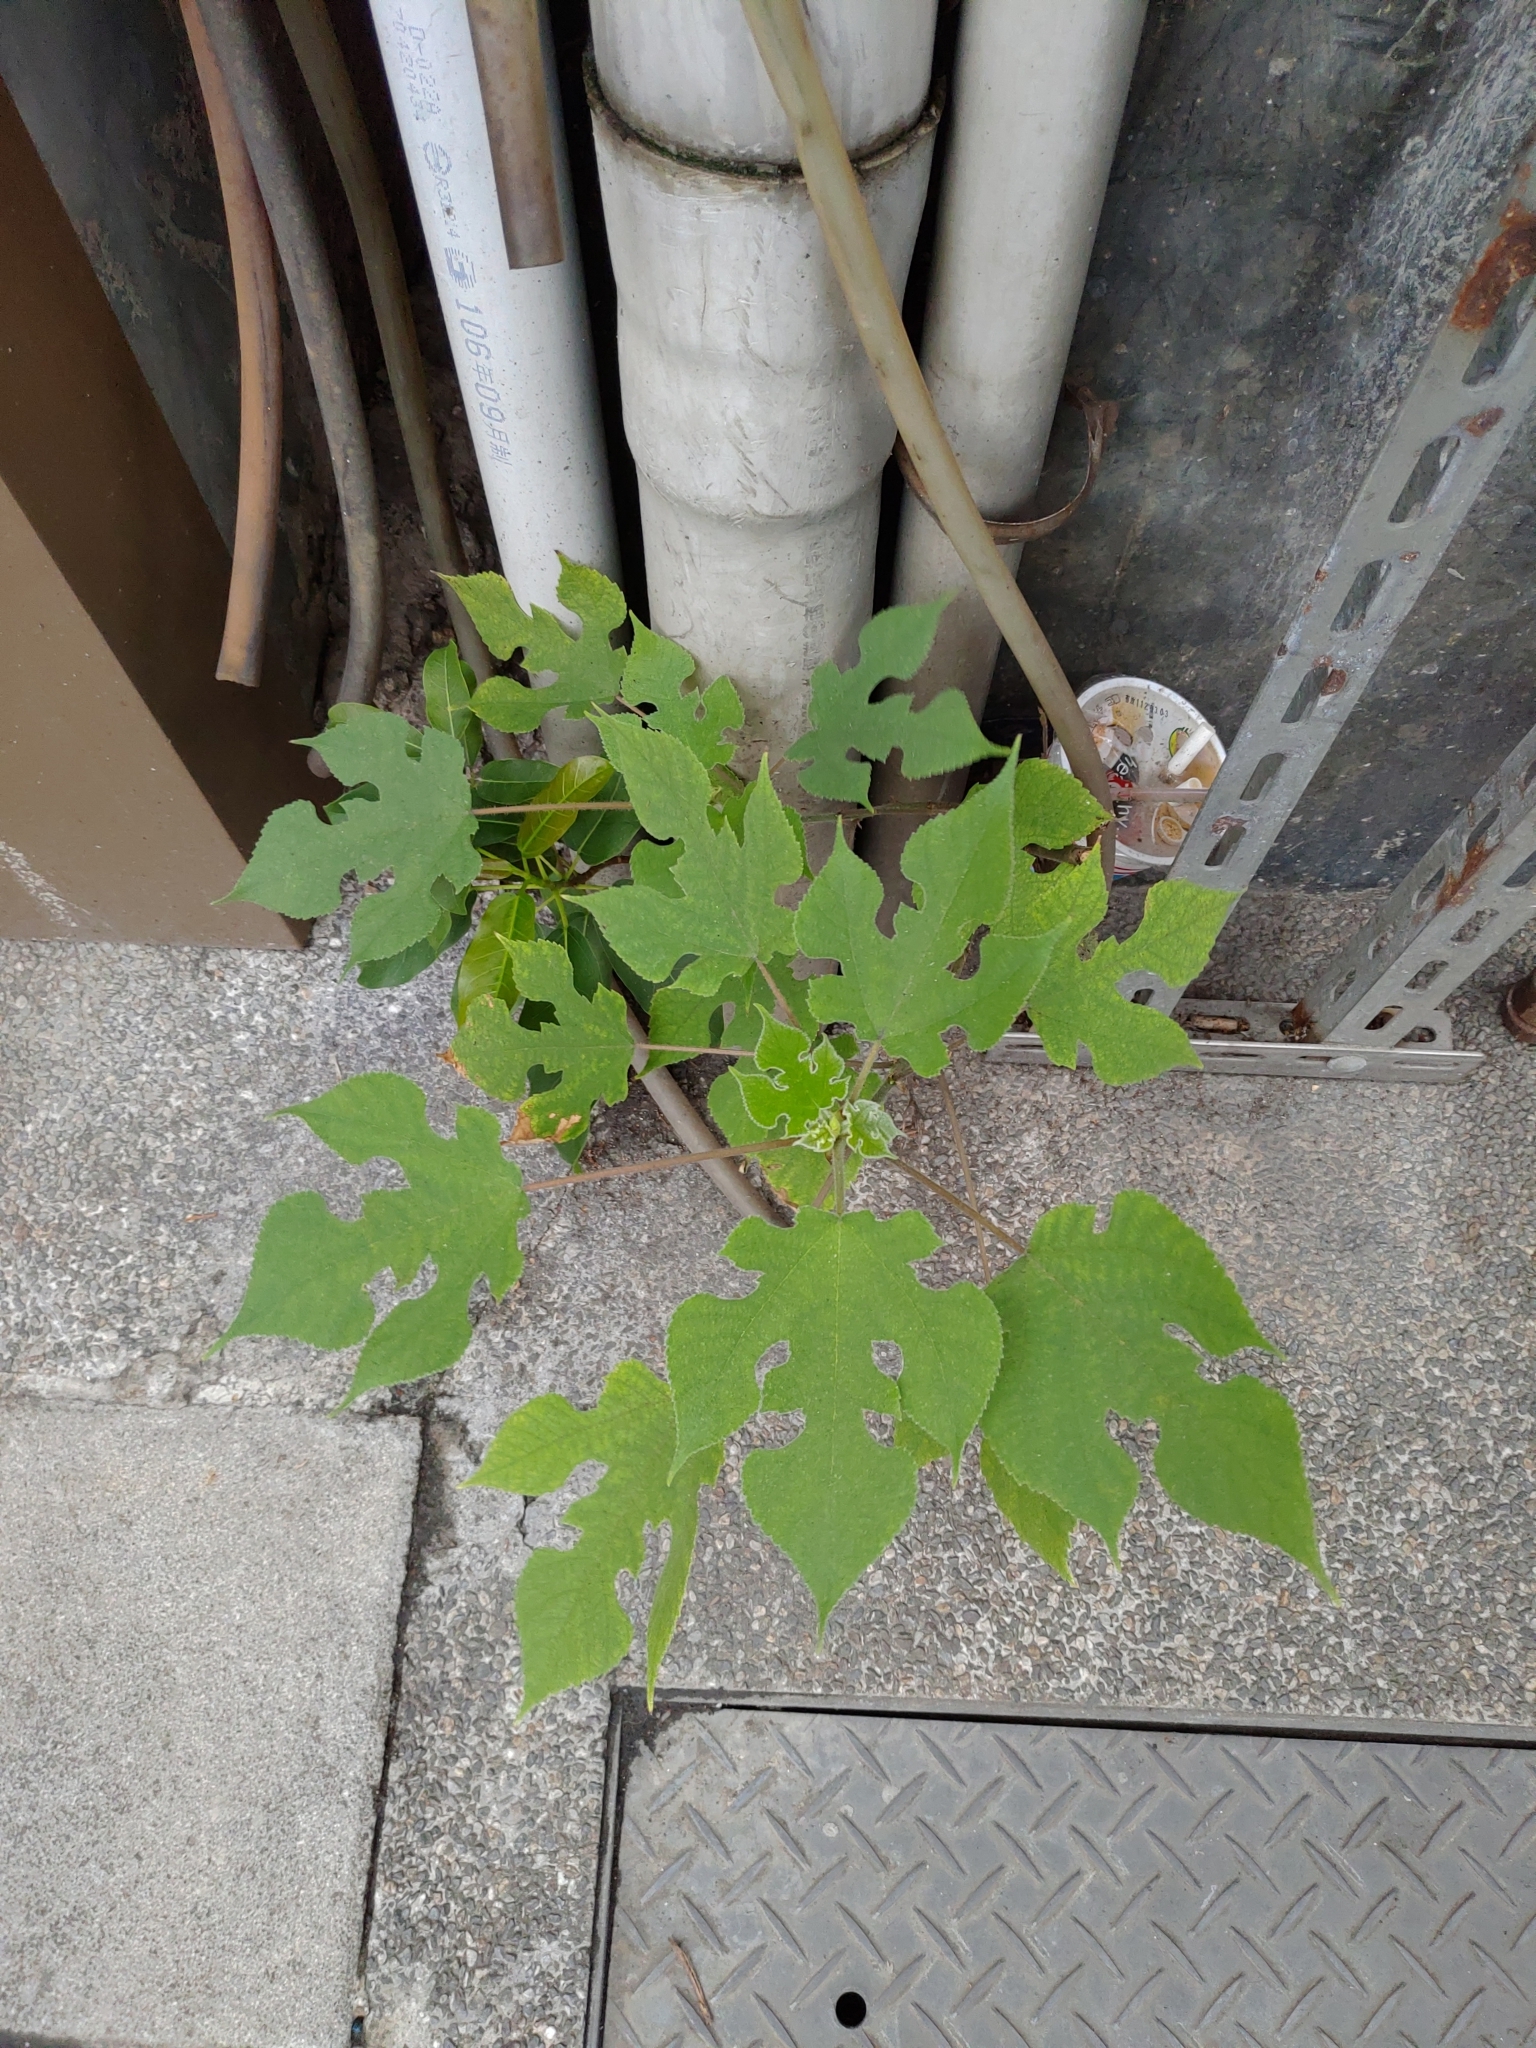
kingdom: Plantae
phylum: Tracheophyta
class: Magnoliopsida
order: Rosales
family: Moraceae
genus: Broussonetia
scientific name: Broussonetia papyrifera
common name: Paper mulberry
